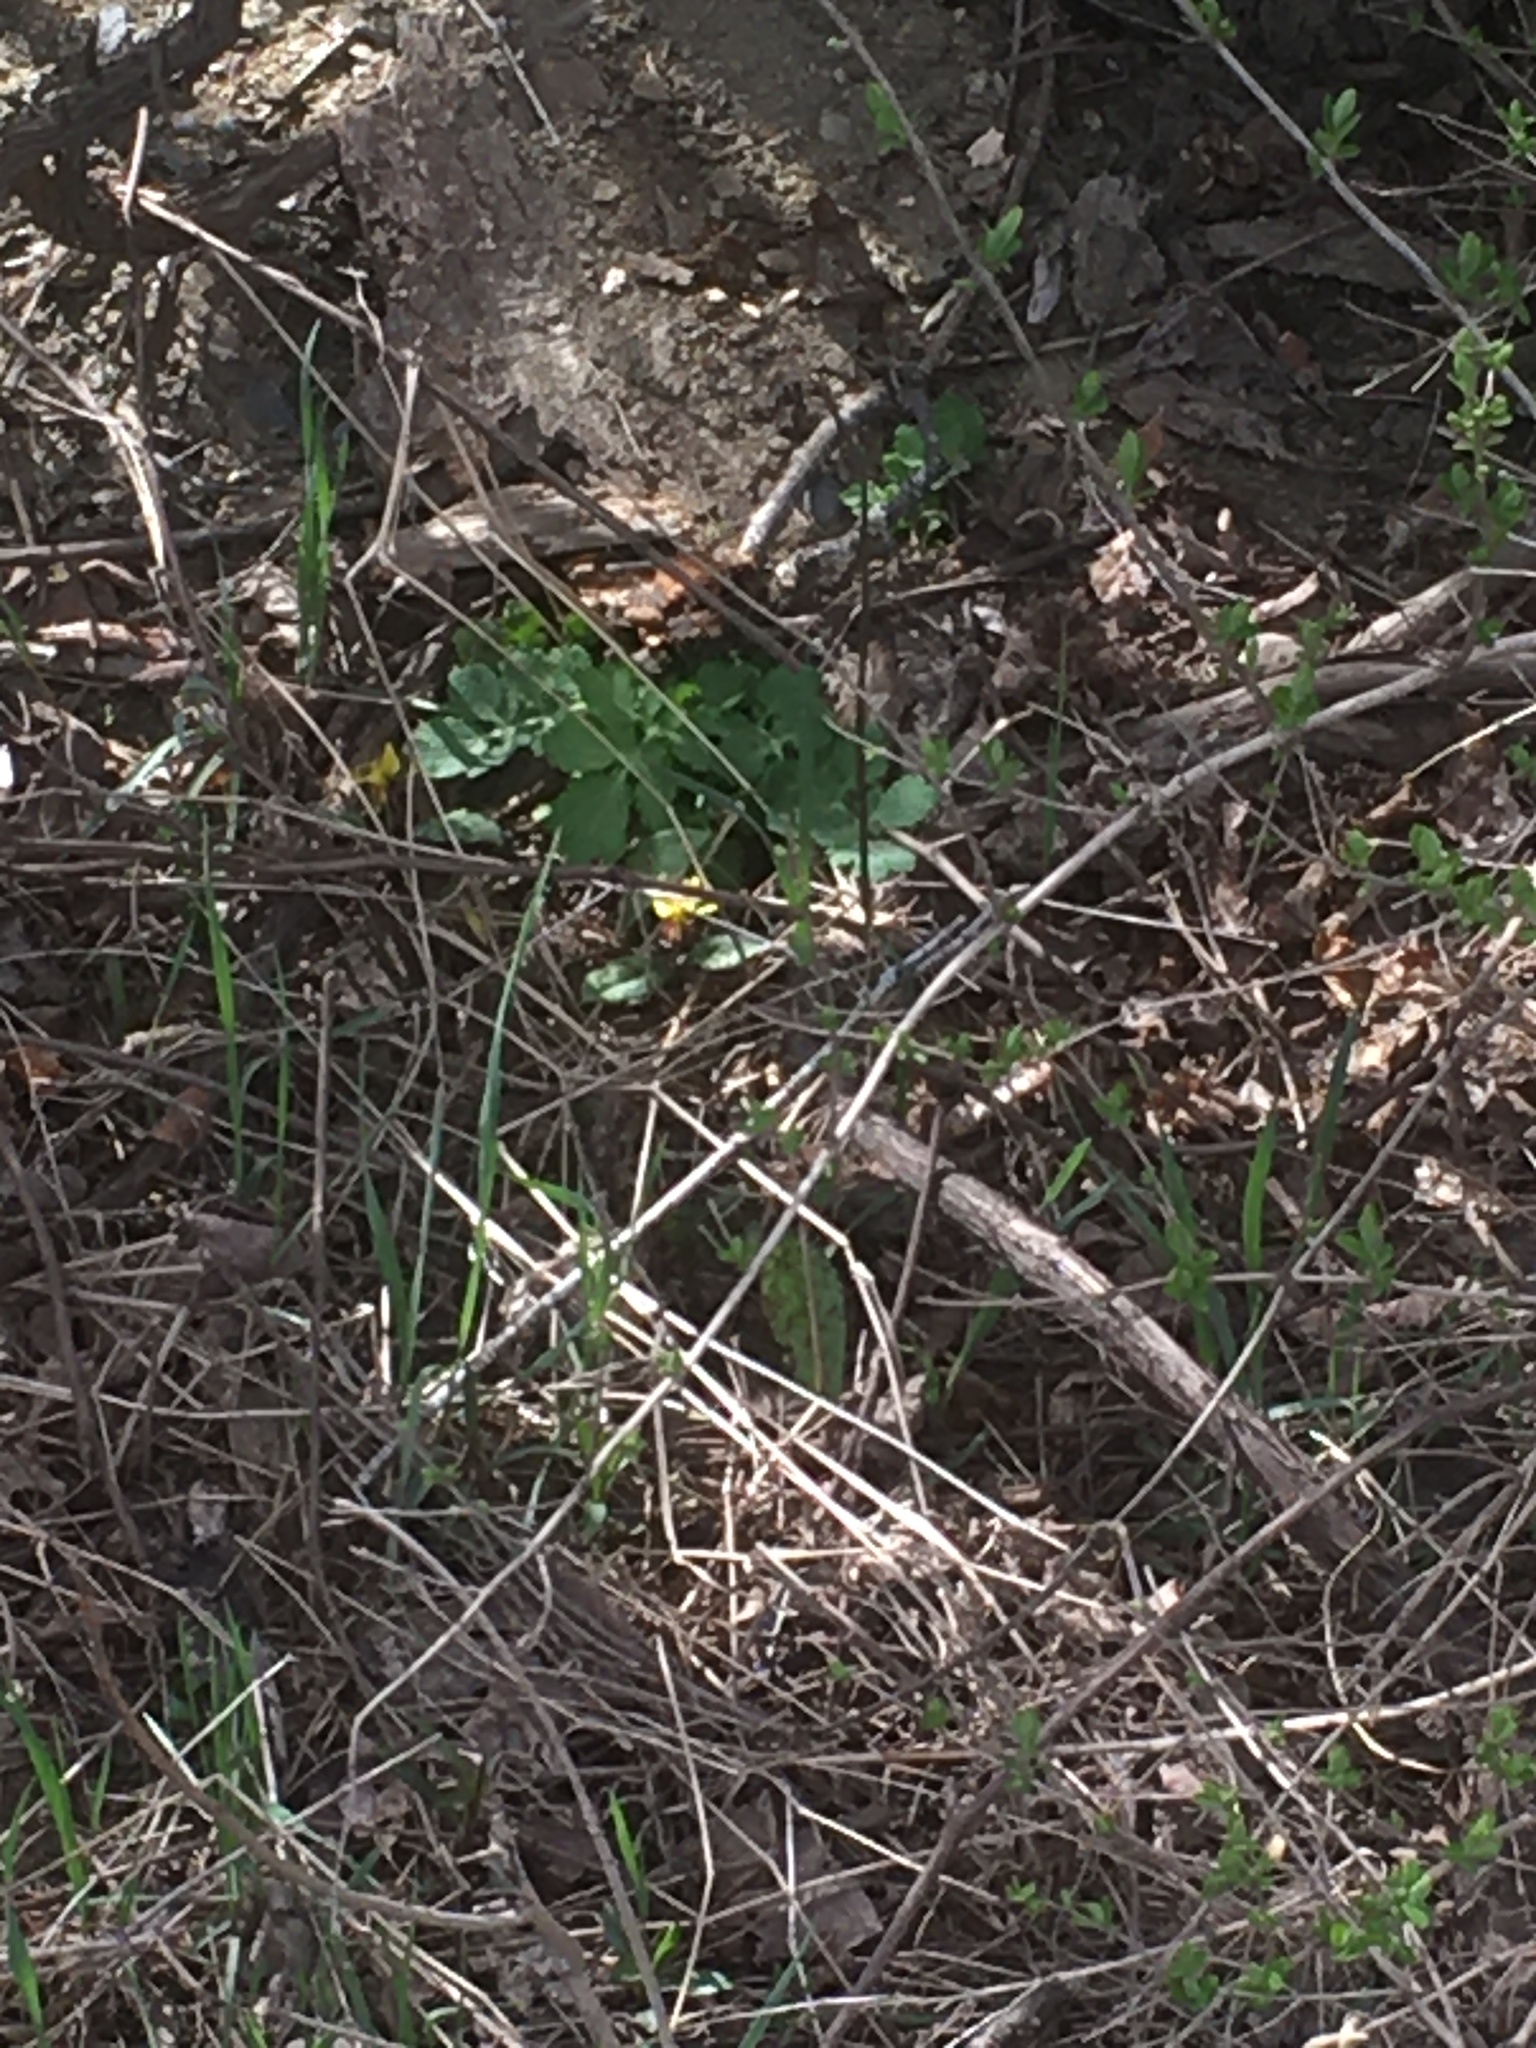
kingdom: Plantae
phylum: Tracheophyta
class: Liliopsida
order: Liliales
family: Liliaceae
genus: Erythronium
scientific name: Erythronium americanum
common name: Yellow adder's-tongue
